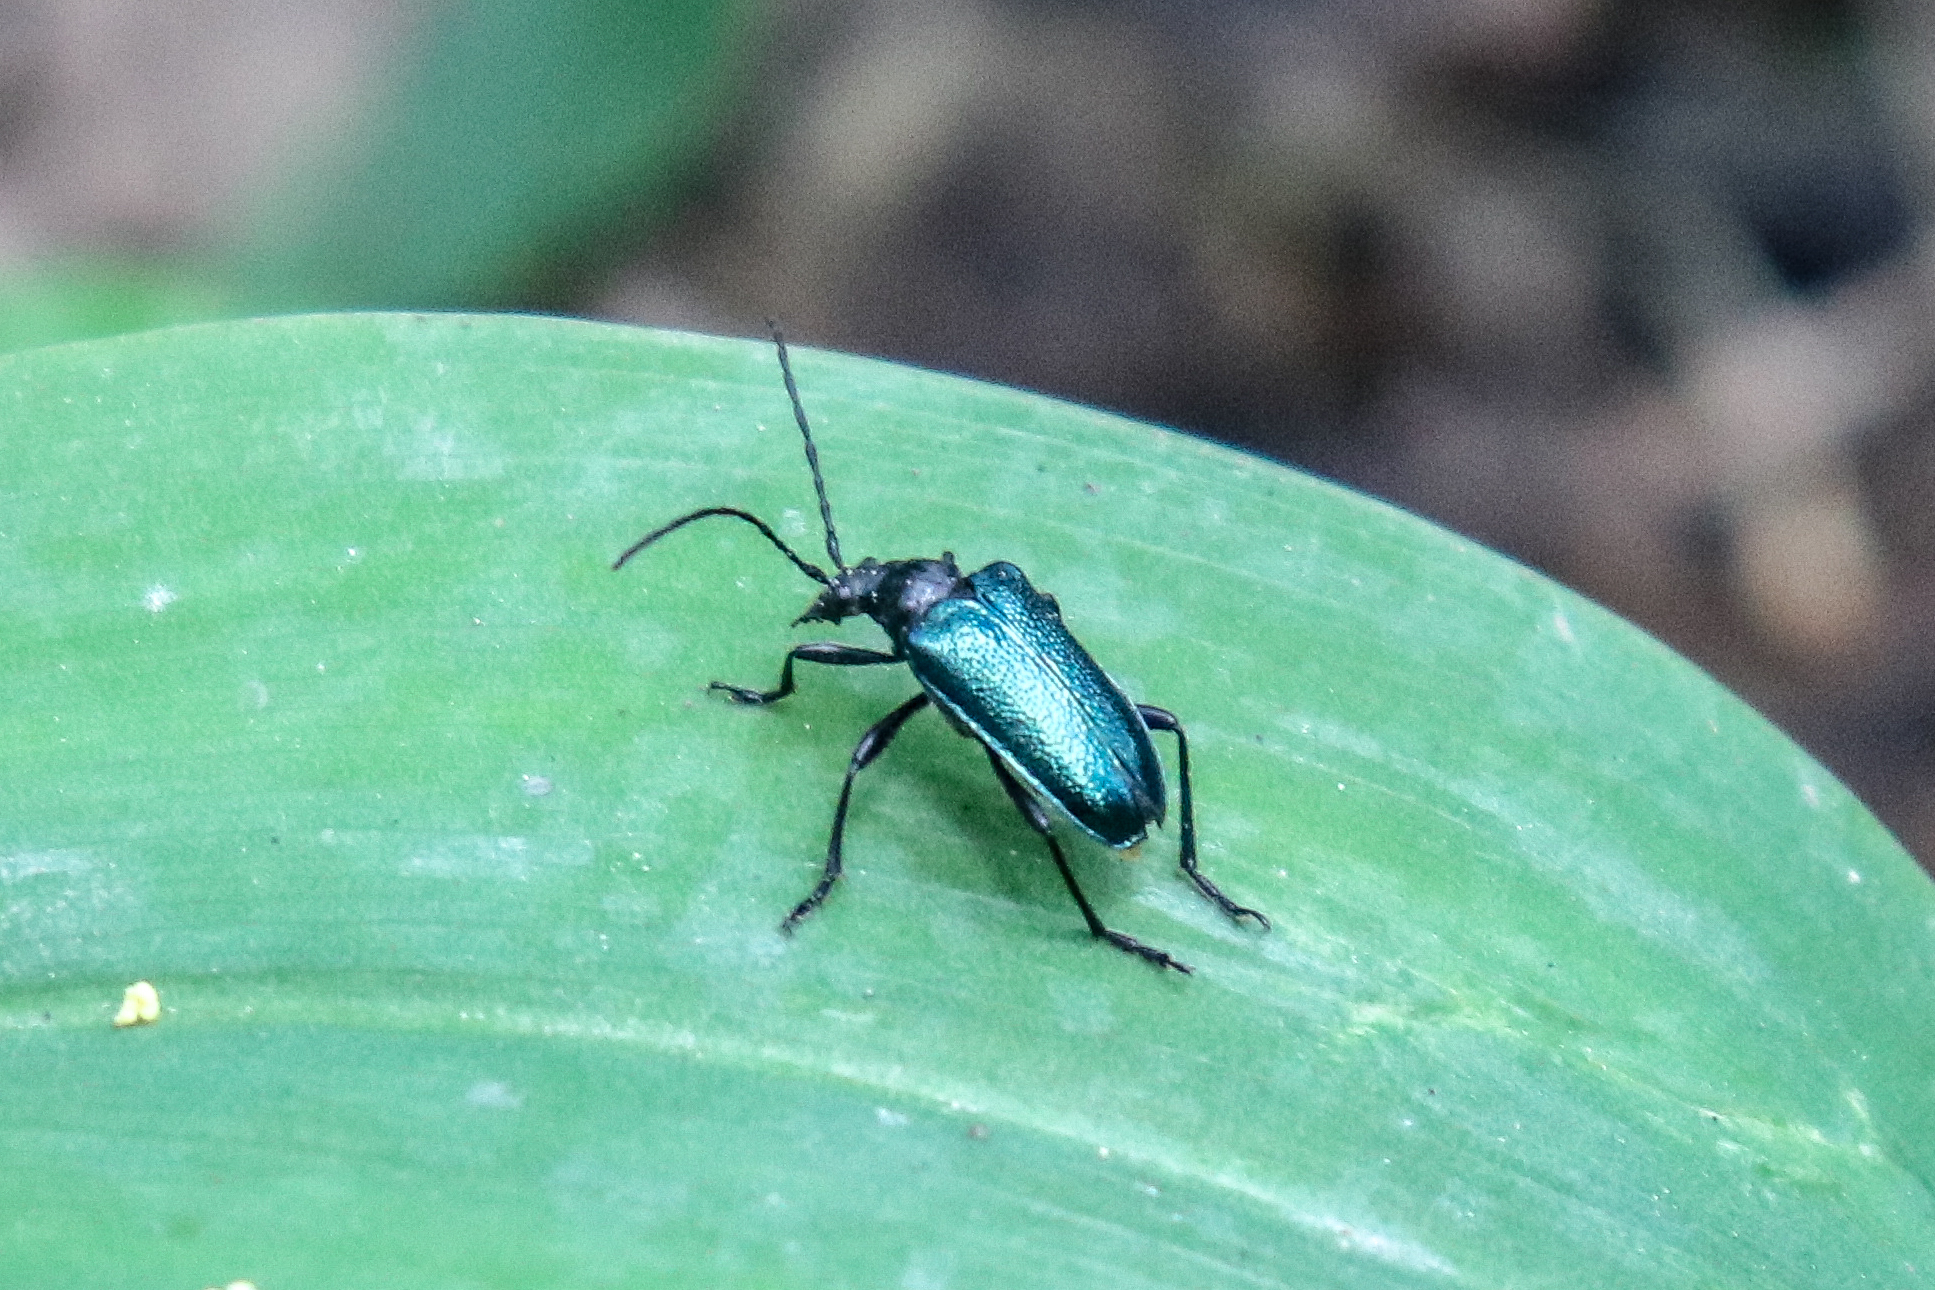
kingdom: Animalia
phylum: Arthropoda
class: Insecta
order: Coleoptera
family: Cerambycidae
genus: Gaurotes
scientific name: Gaurotes virginea
